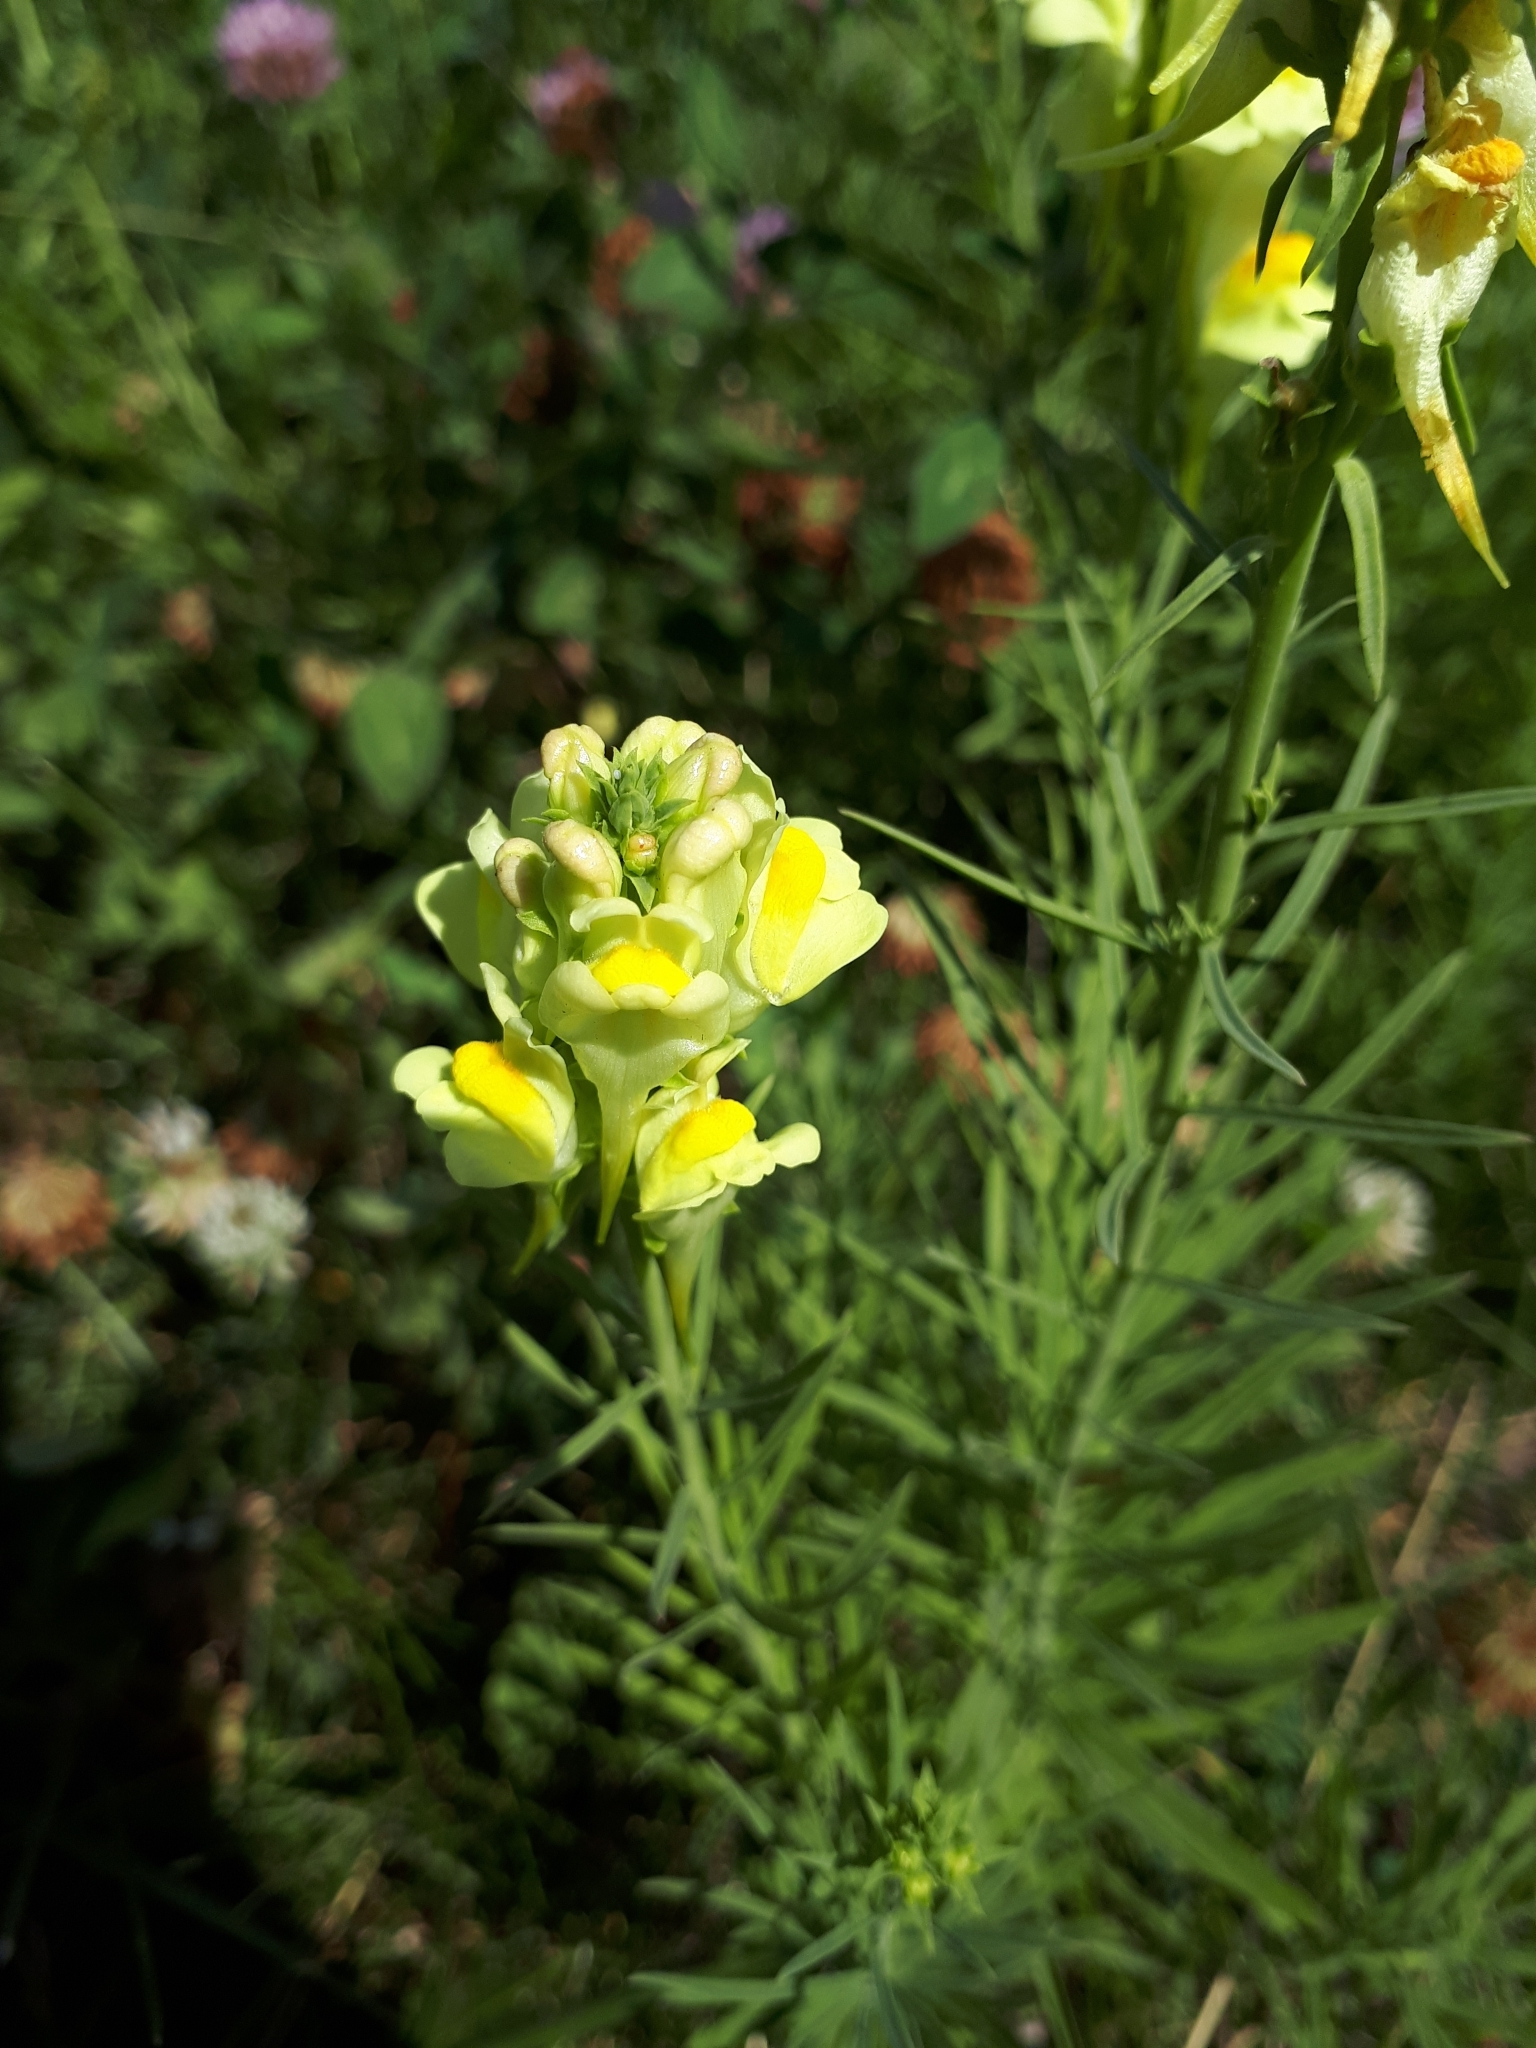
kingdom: Plantae
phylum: Tracheophyta
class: Magnoliopsida
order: Lamiales
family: Plantaginaceae
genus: Linaria
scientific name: Linaria vulgaris
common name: Butter and eggs
